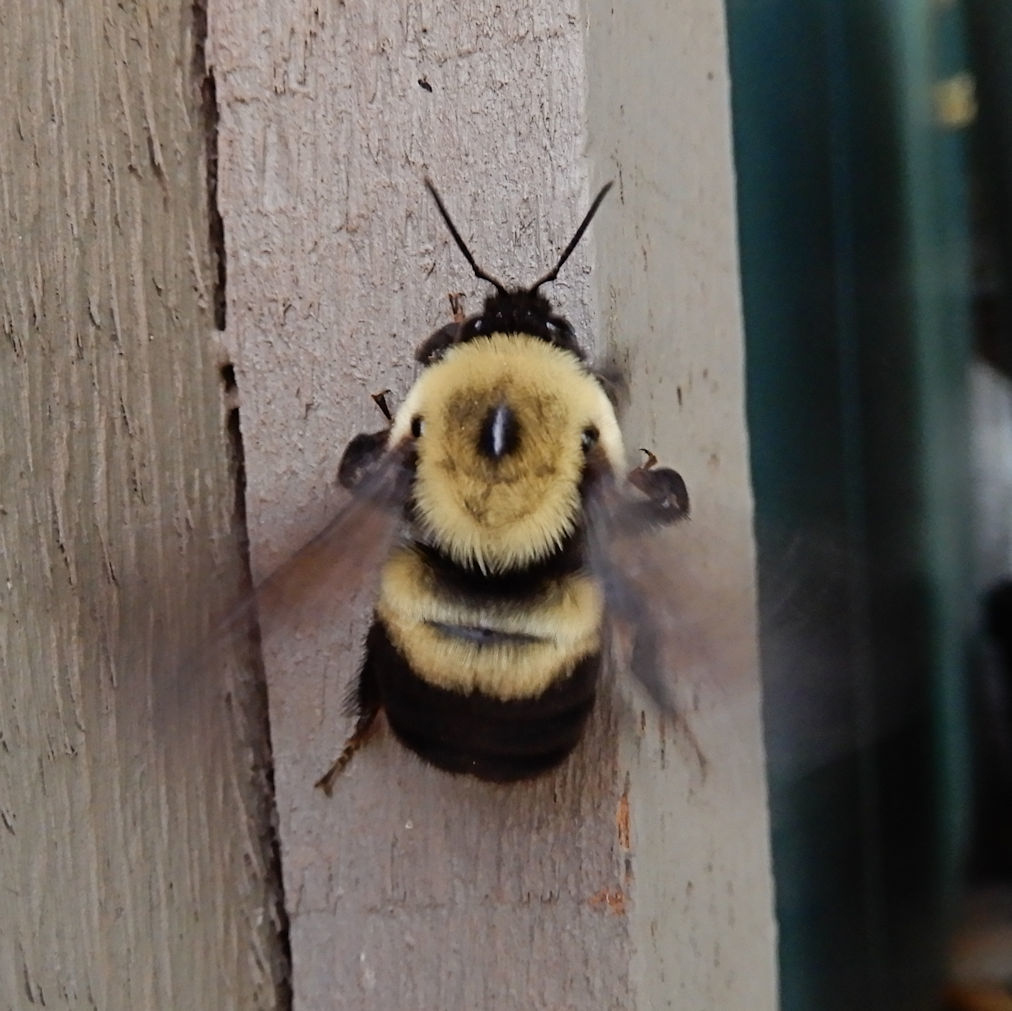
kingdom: Animalia
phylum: Arthropoda
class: Insecta
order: Hymenoptera
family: Apidae
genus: Bombus
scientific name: Bombus griseocollis
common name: Brown-belted bumble bee
